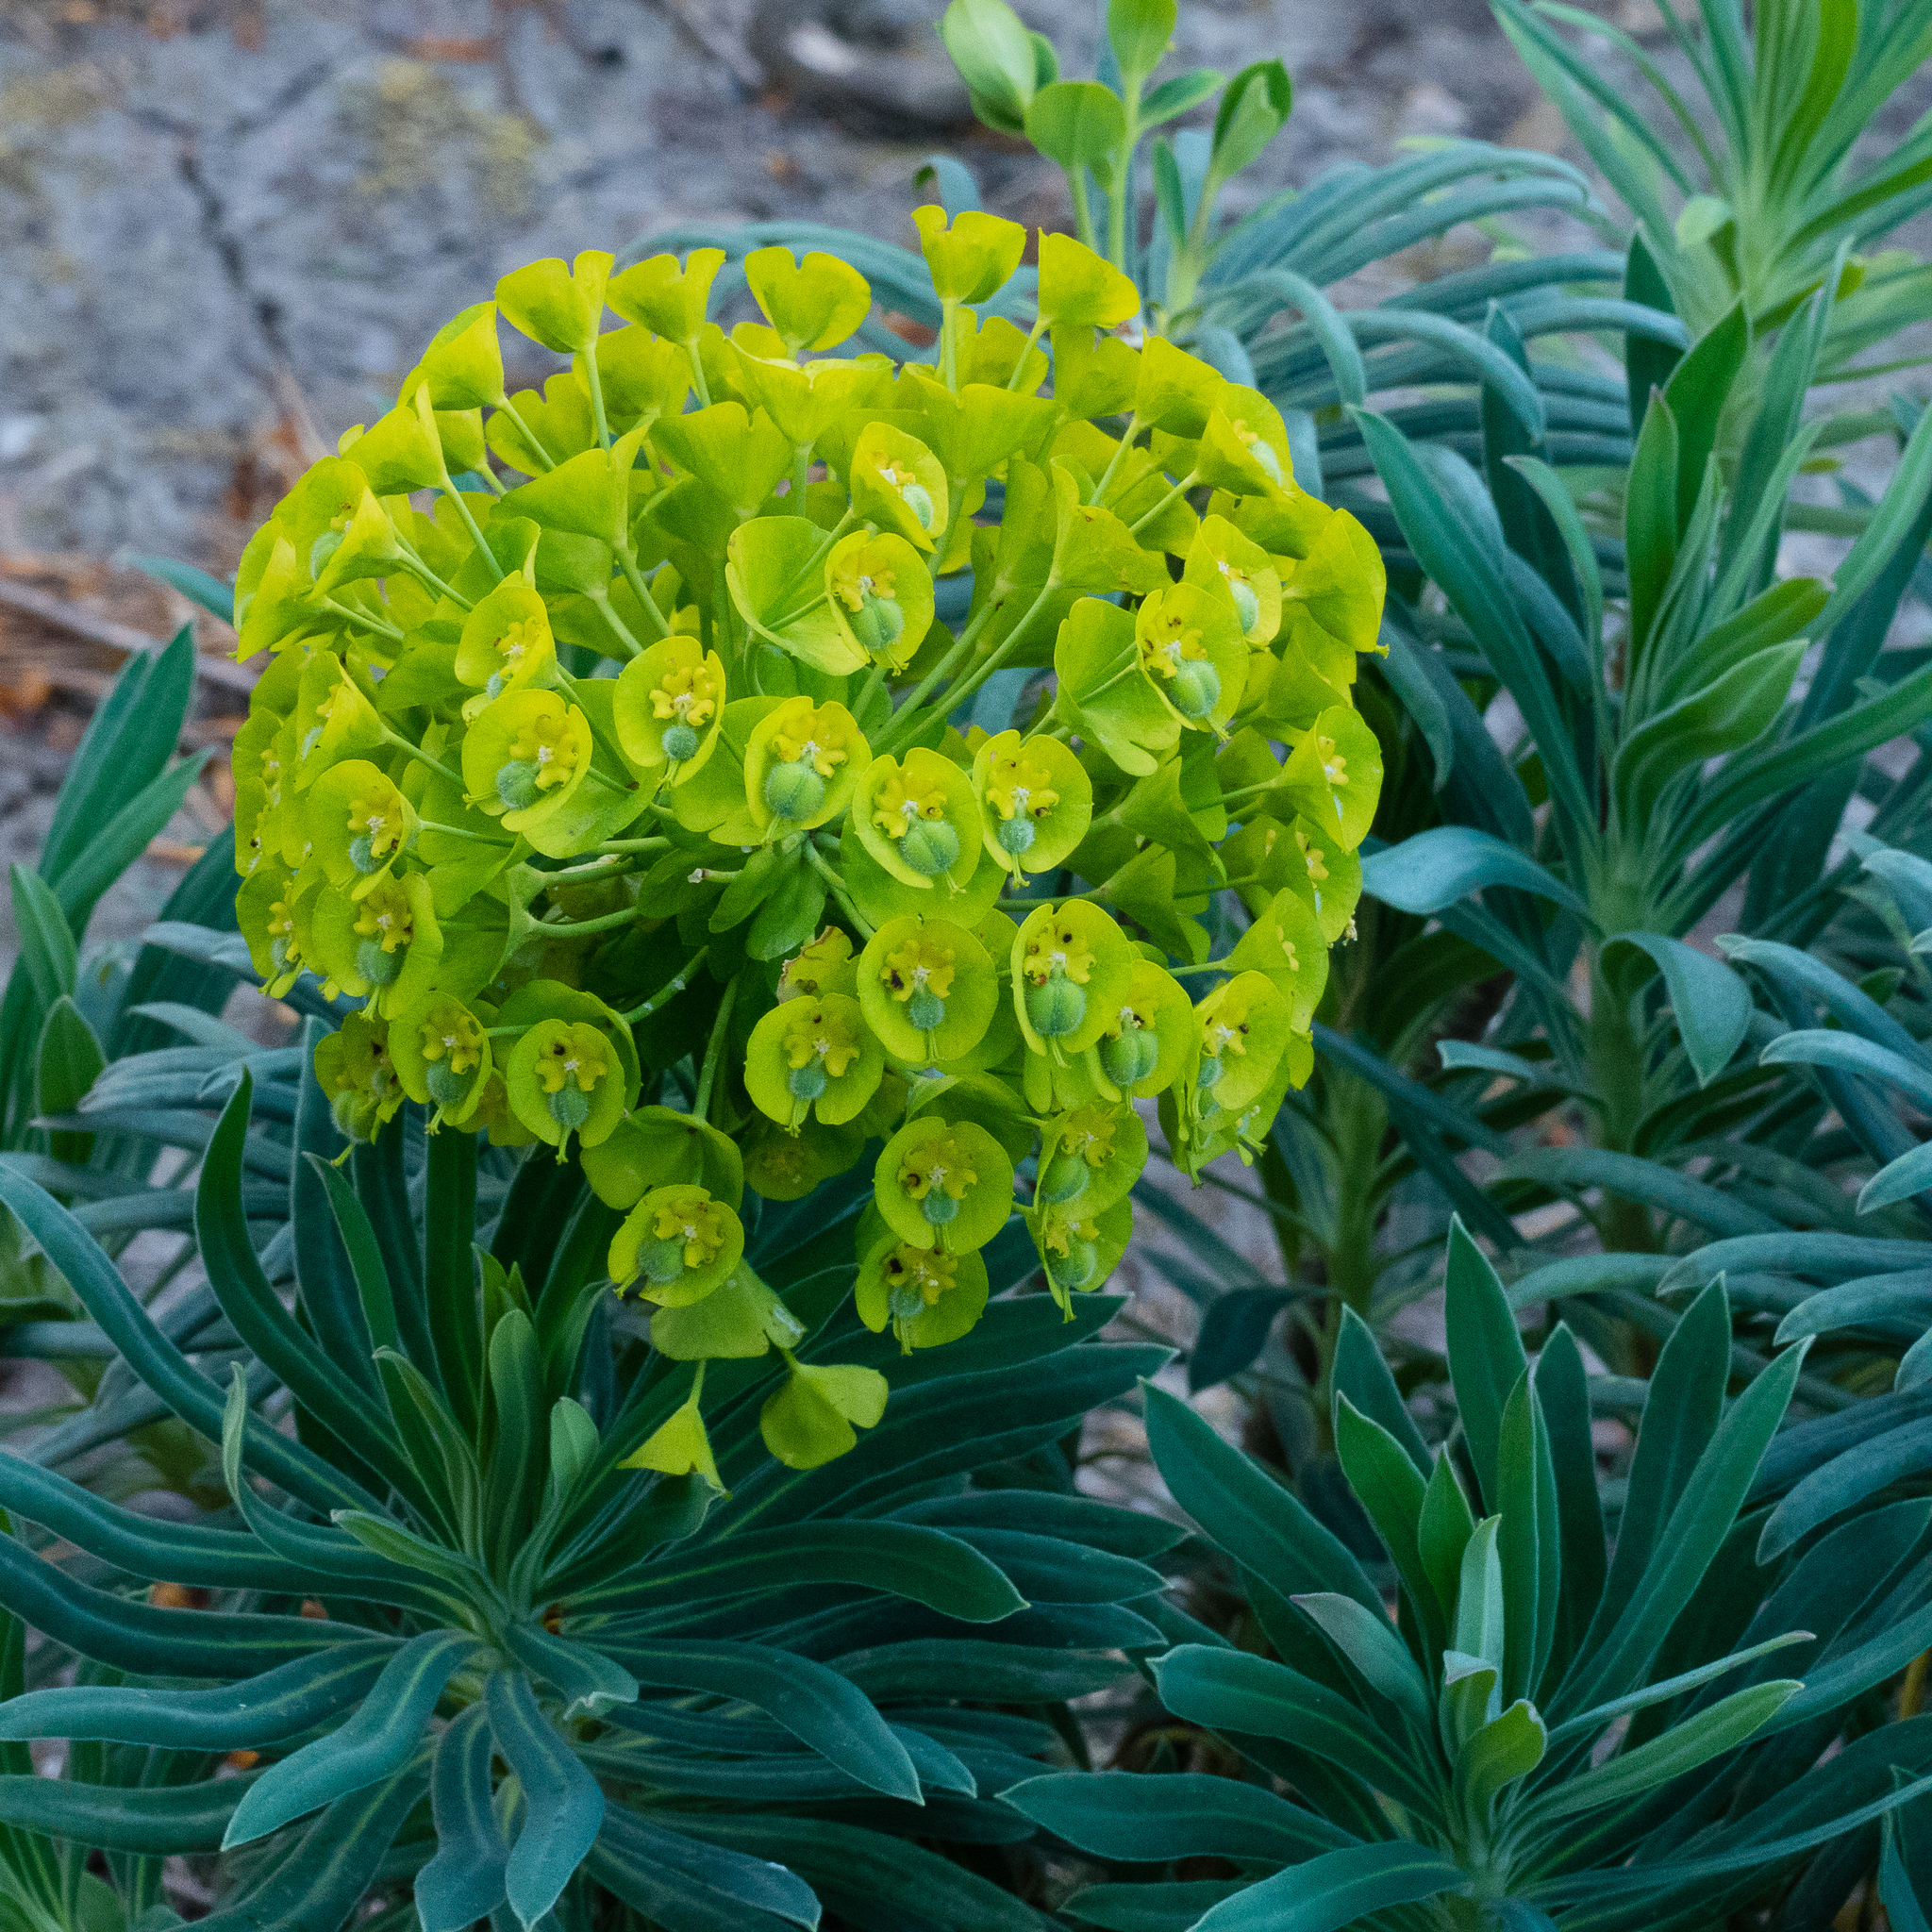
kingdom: Plantae
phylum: Tracheophyta
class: Magnoliopsida
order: Malpighiales
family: Euphorbiaceae
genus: Euphorbia
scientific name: Euphorbia characias
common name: Mediterranean spurge
